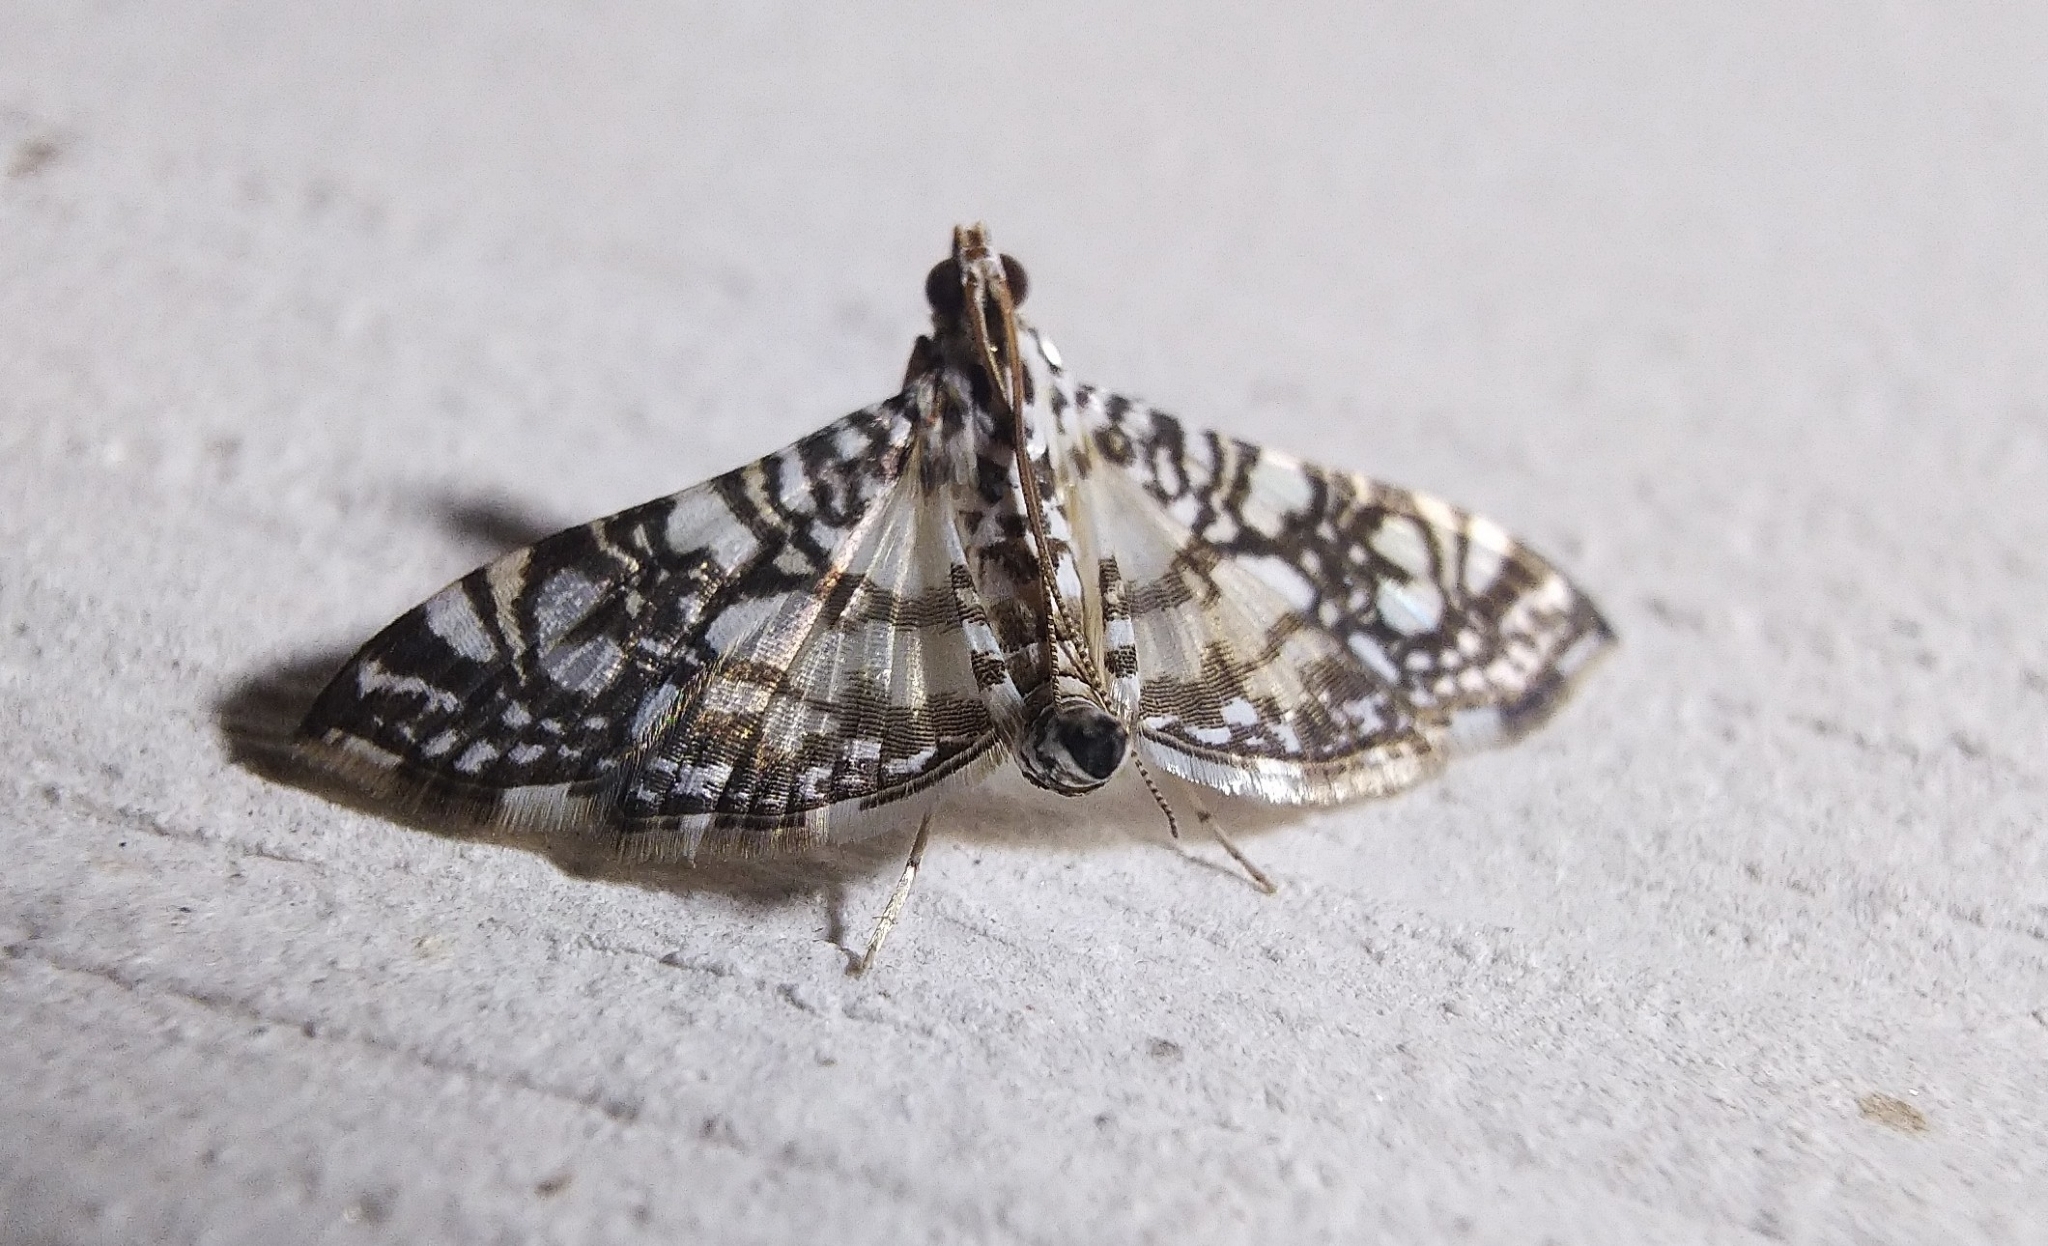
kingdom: Animalia
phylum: Arthropoda
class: Insecta
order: Lepidoptera
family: Crambidae
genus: Glyphodes
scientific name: Glyphodes onychinalis
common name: Swan plant moth
